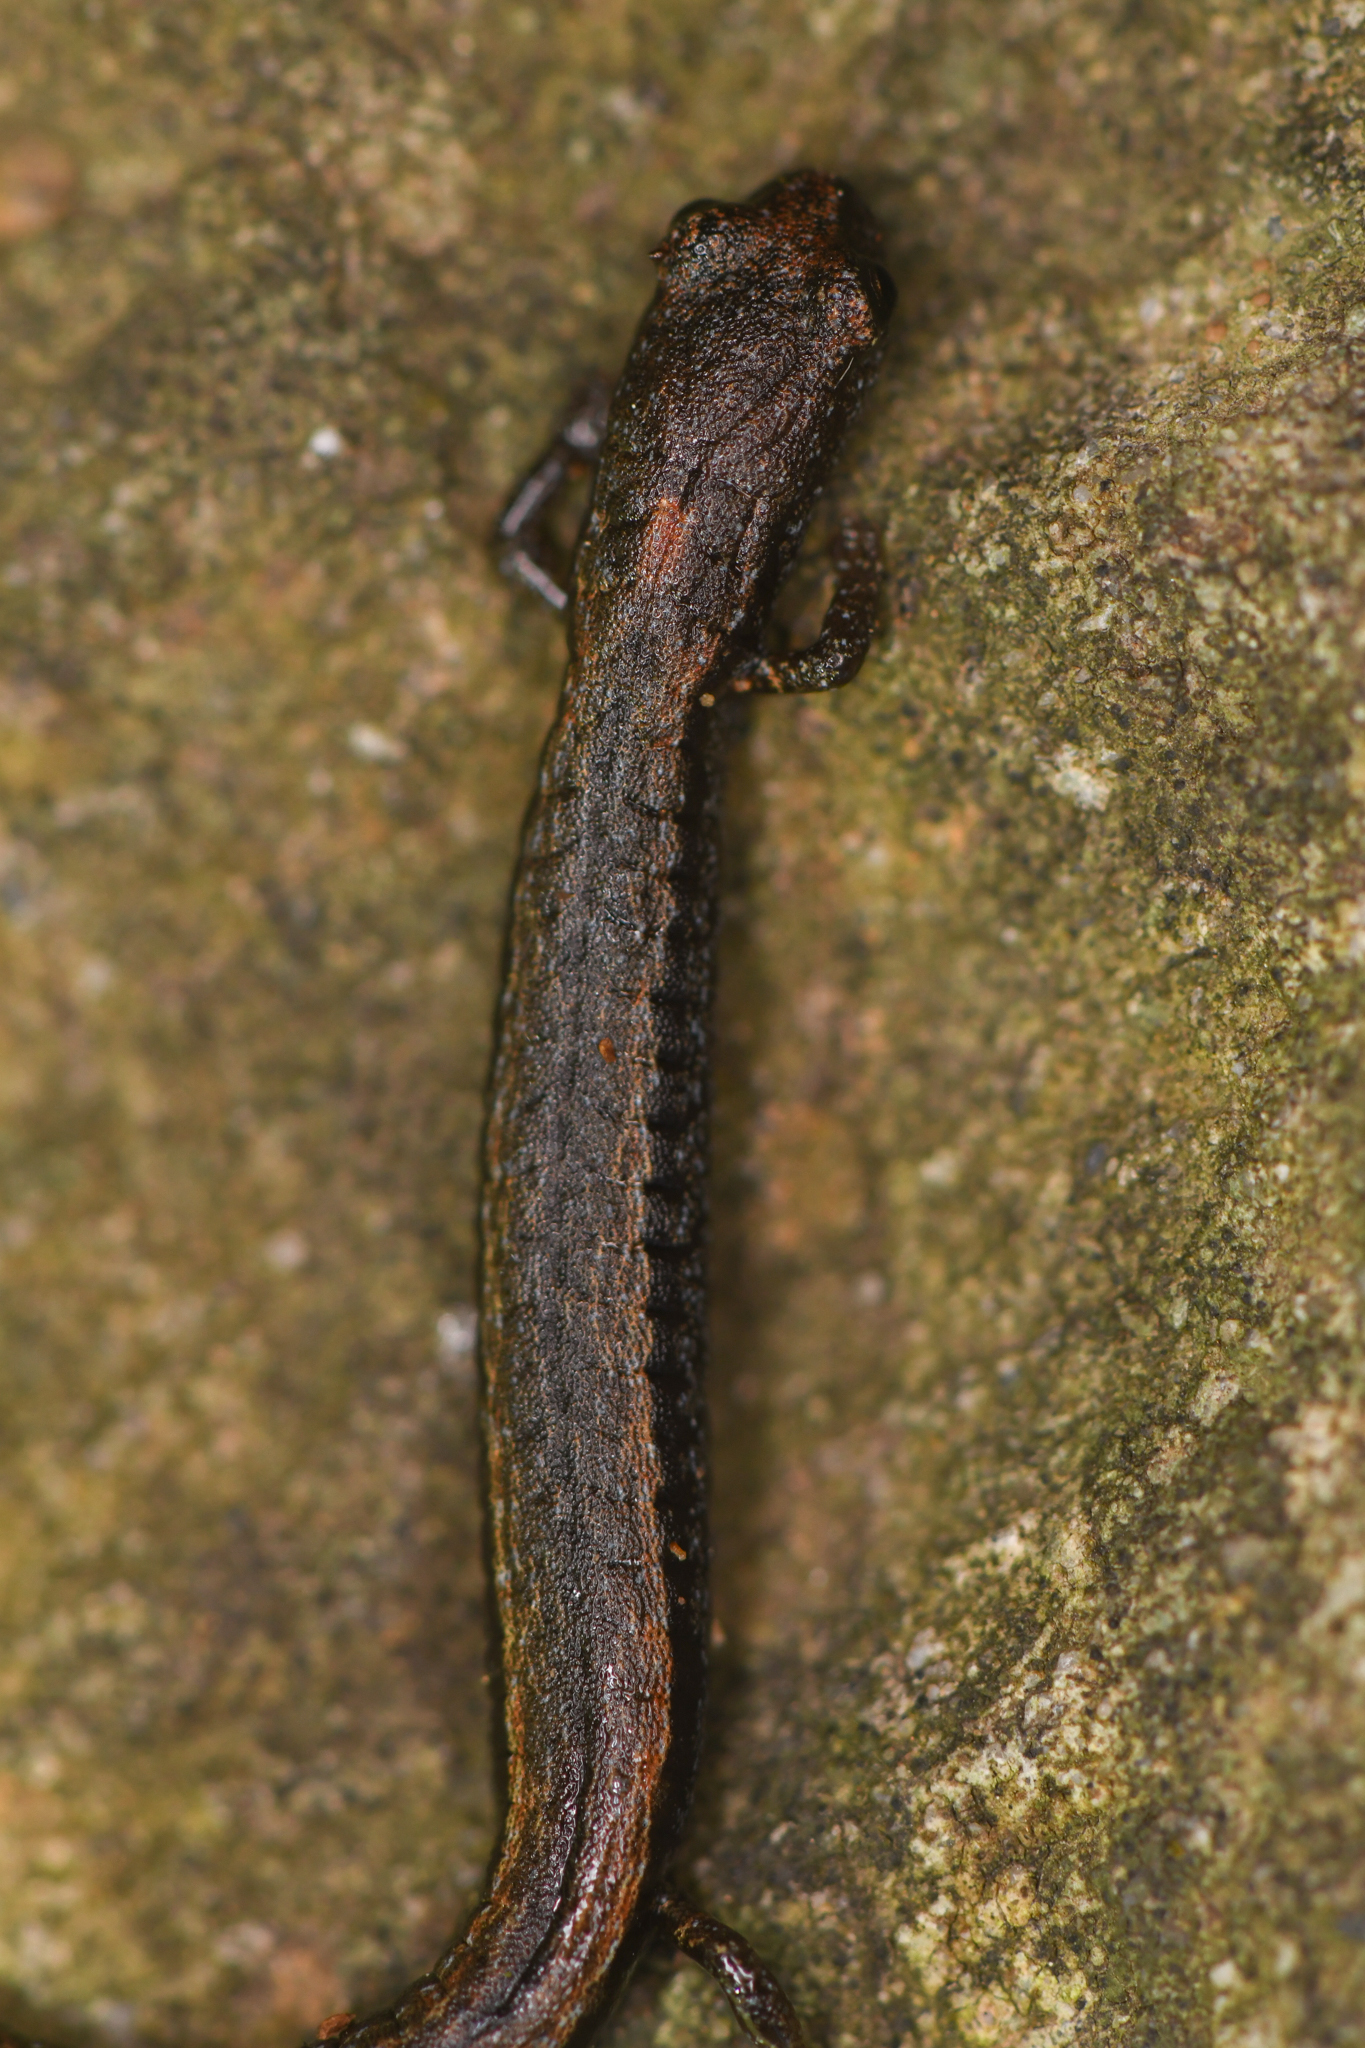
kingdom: Animalia
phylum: Chordata
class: Amphibia
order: Caudata
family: Plethodontidae
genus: Batrachoseps
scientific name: Batrachoseps incognitus
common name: San simeon slender salamander
